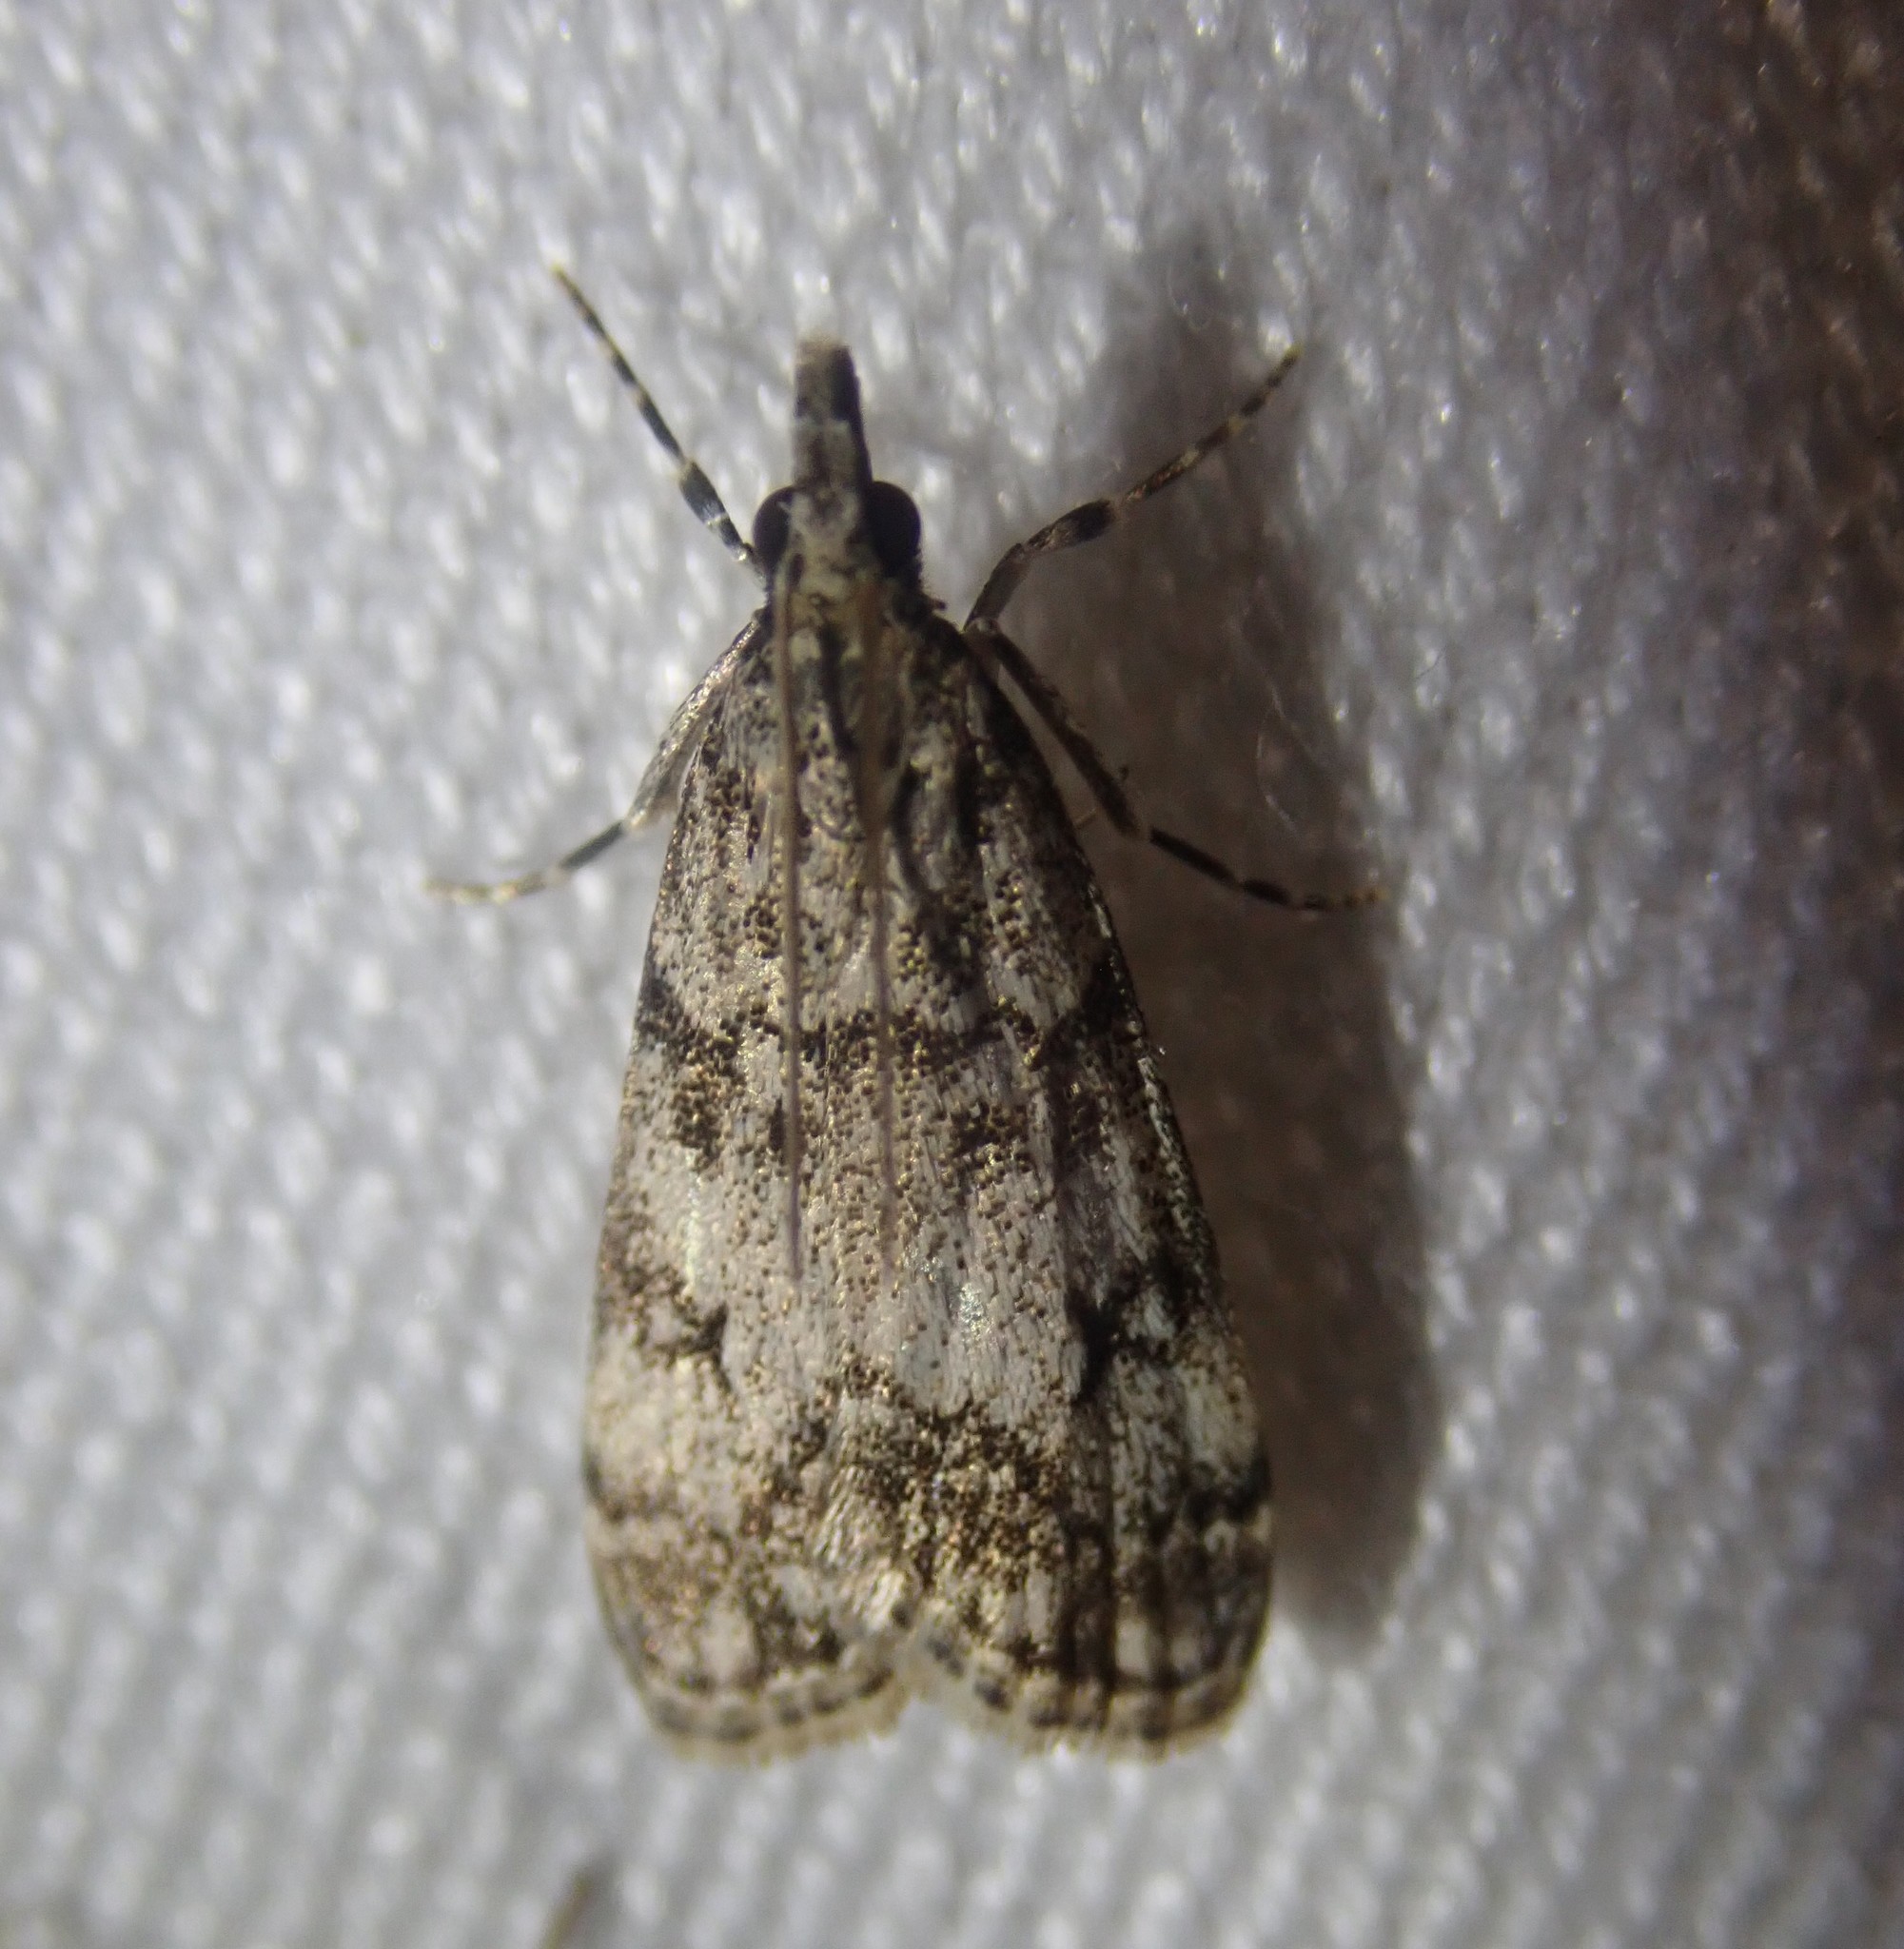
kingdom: Animalia
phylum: Arthropoda
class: Insecta
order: Lepidoptera
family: Crambidae
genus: Eudonia
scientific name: Eudonia lacustrata
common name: Little grey
